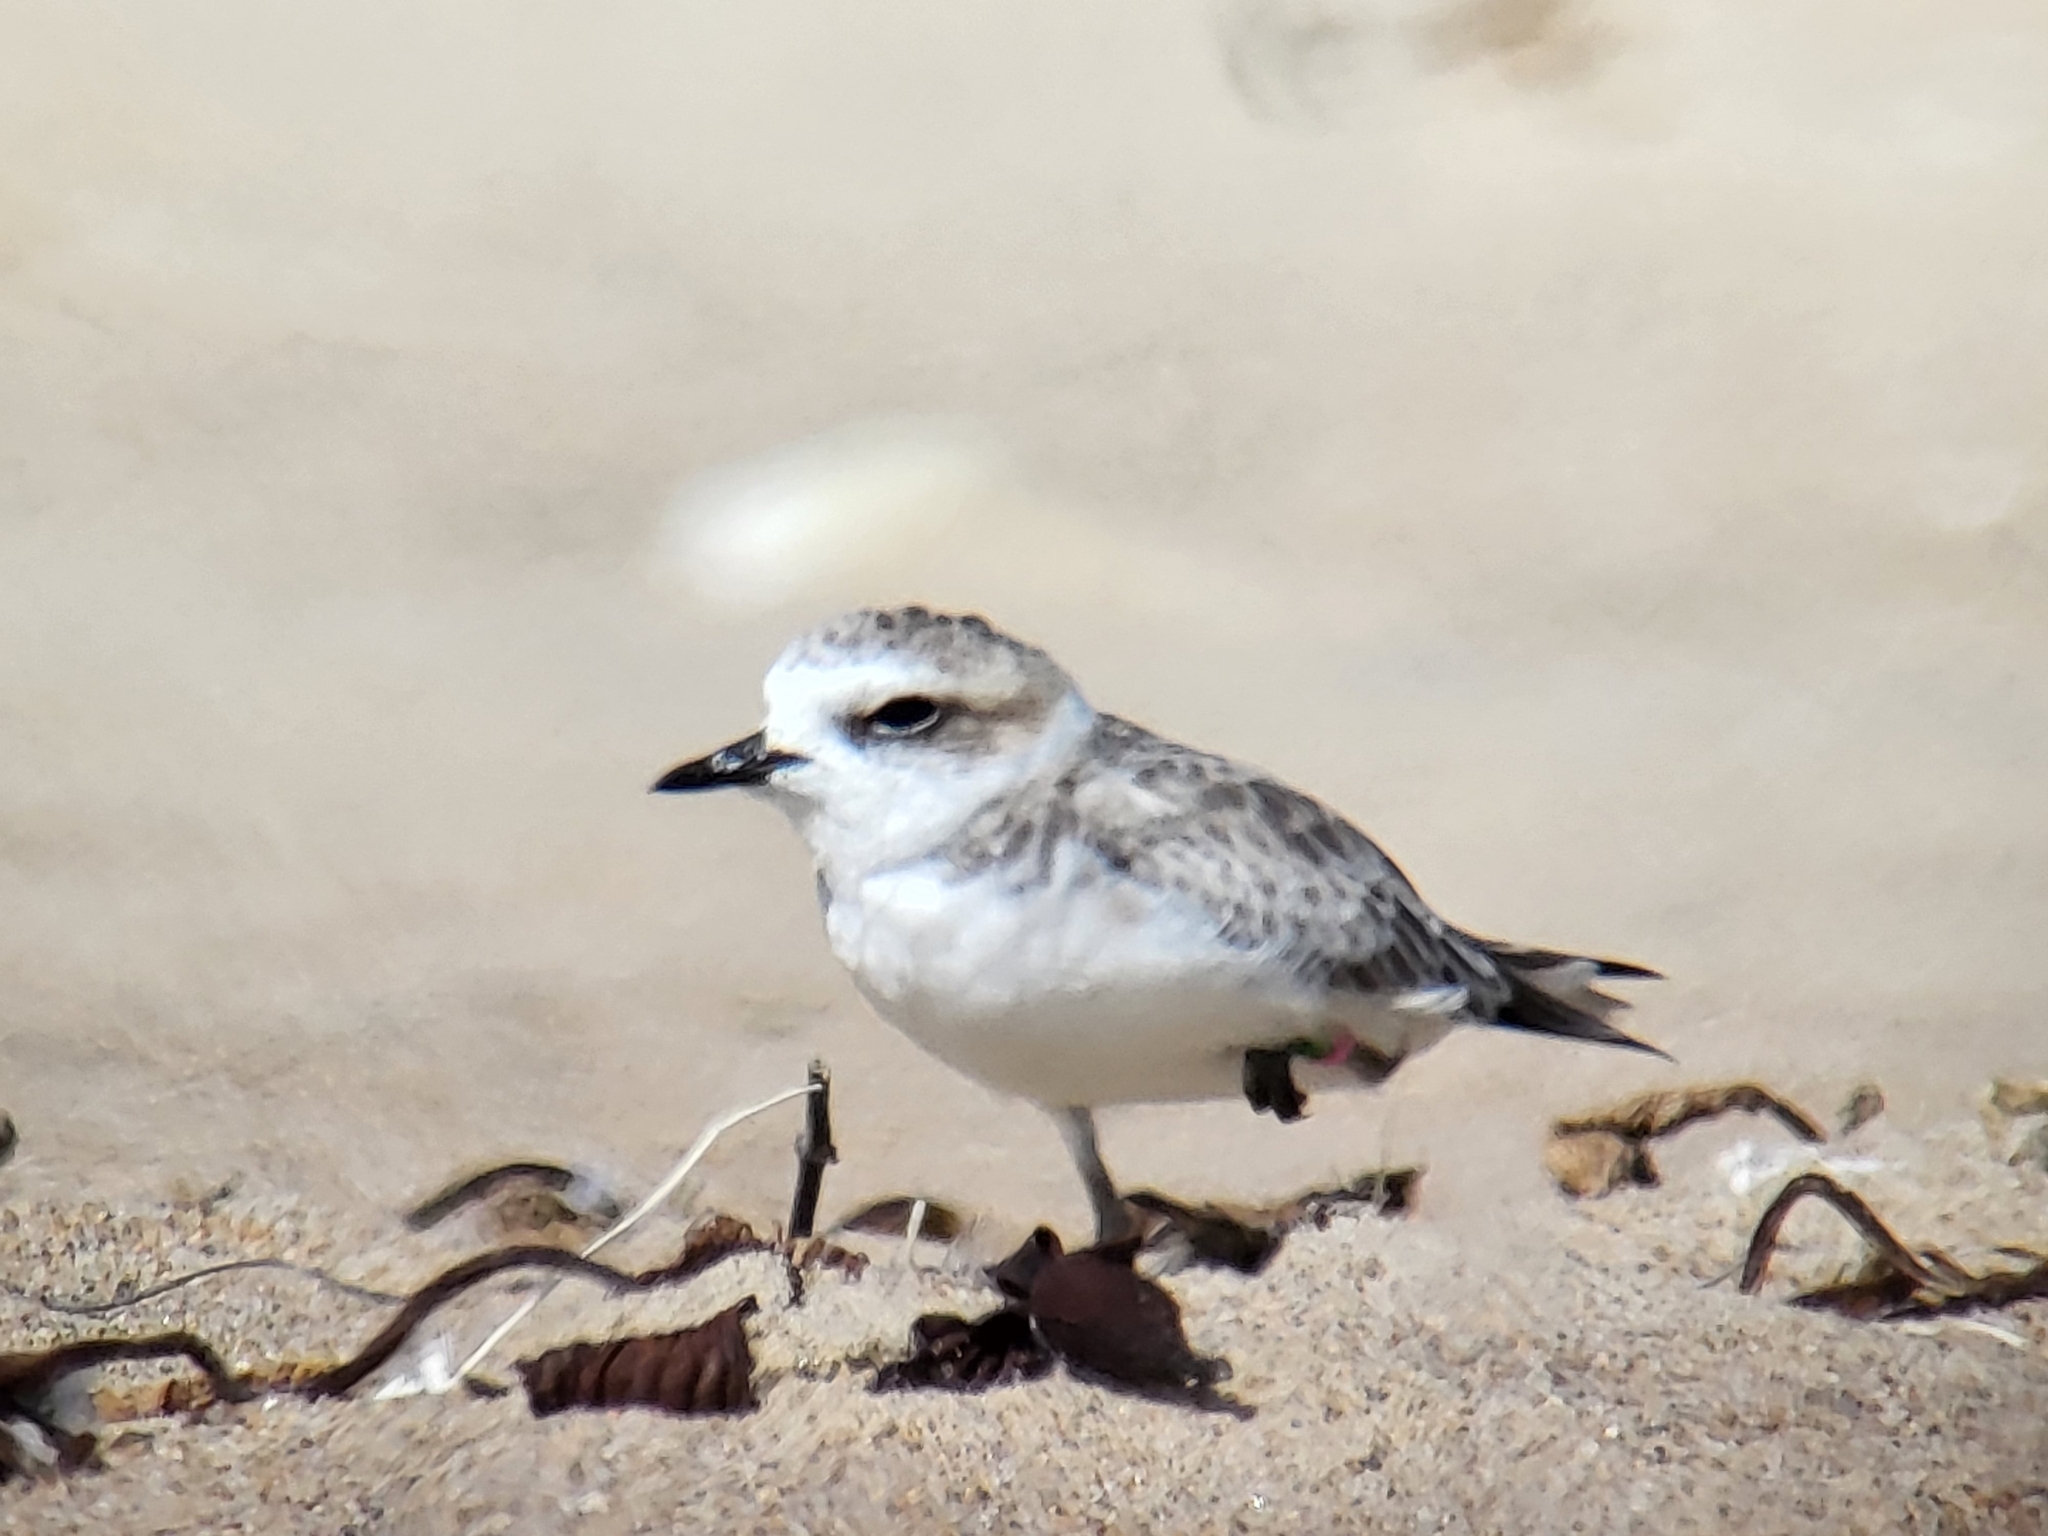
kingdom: Animalia
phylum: Chordata
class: Aves
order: Charadriiformes
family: Charadriidae
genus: Anarhynchus
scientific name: Anarhynchus
